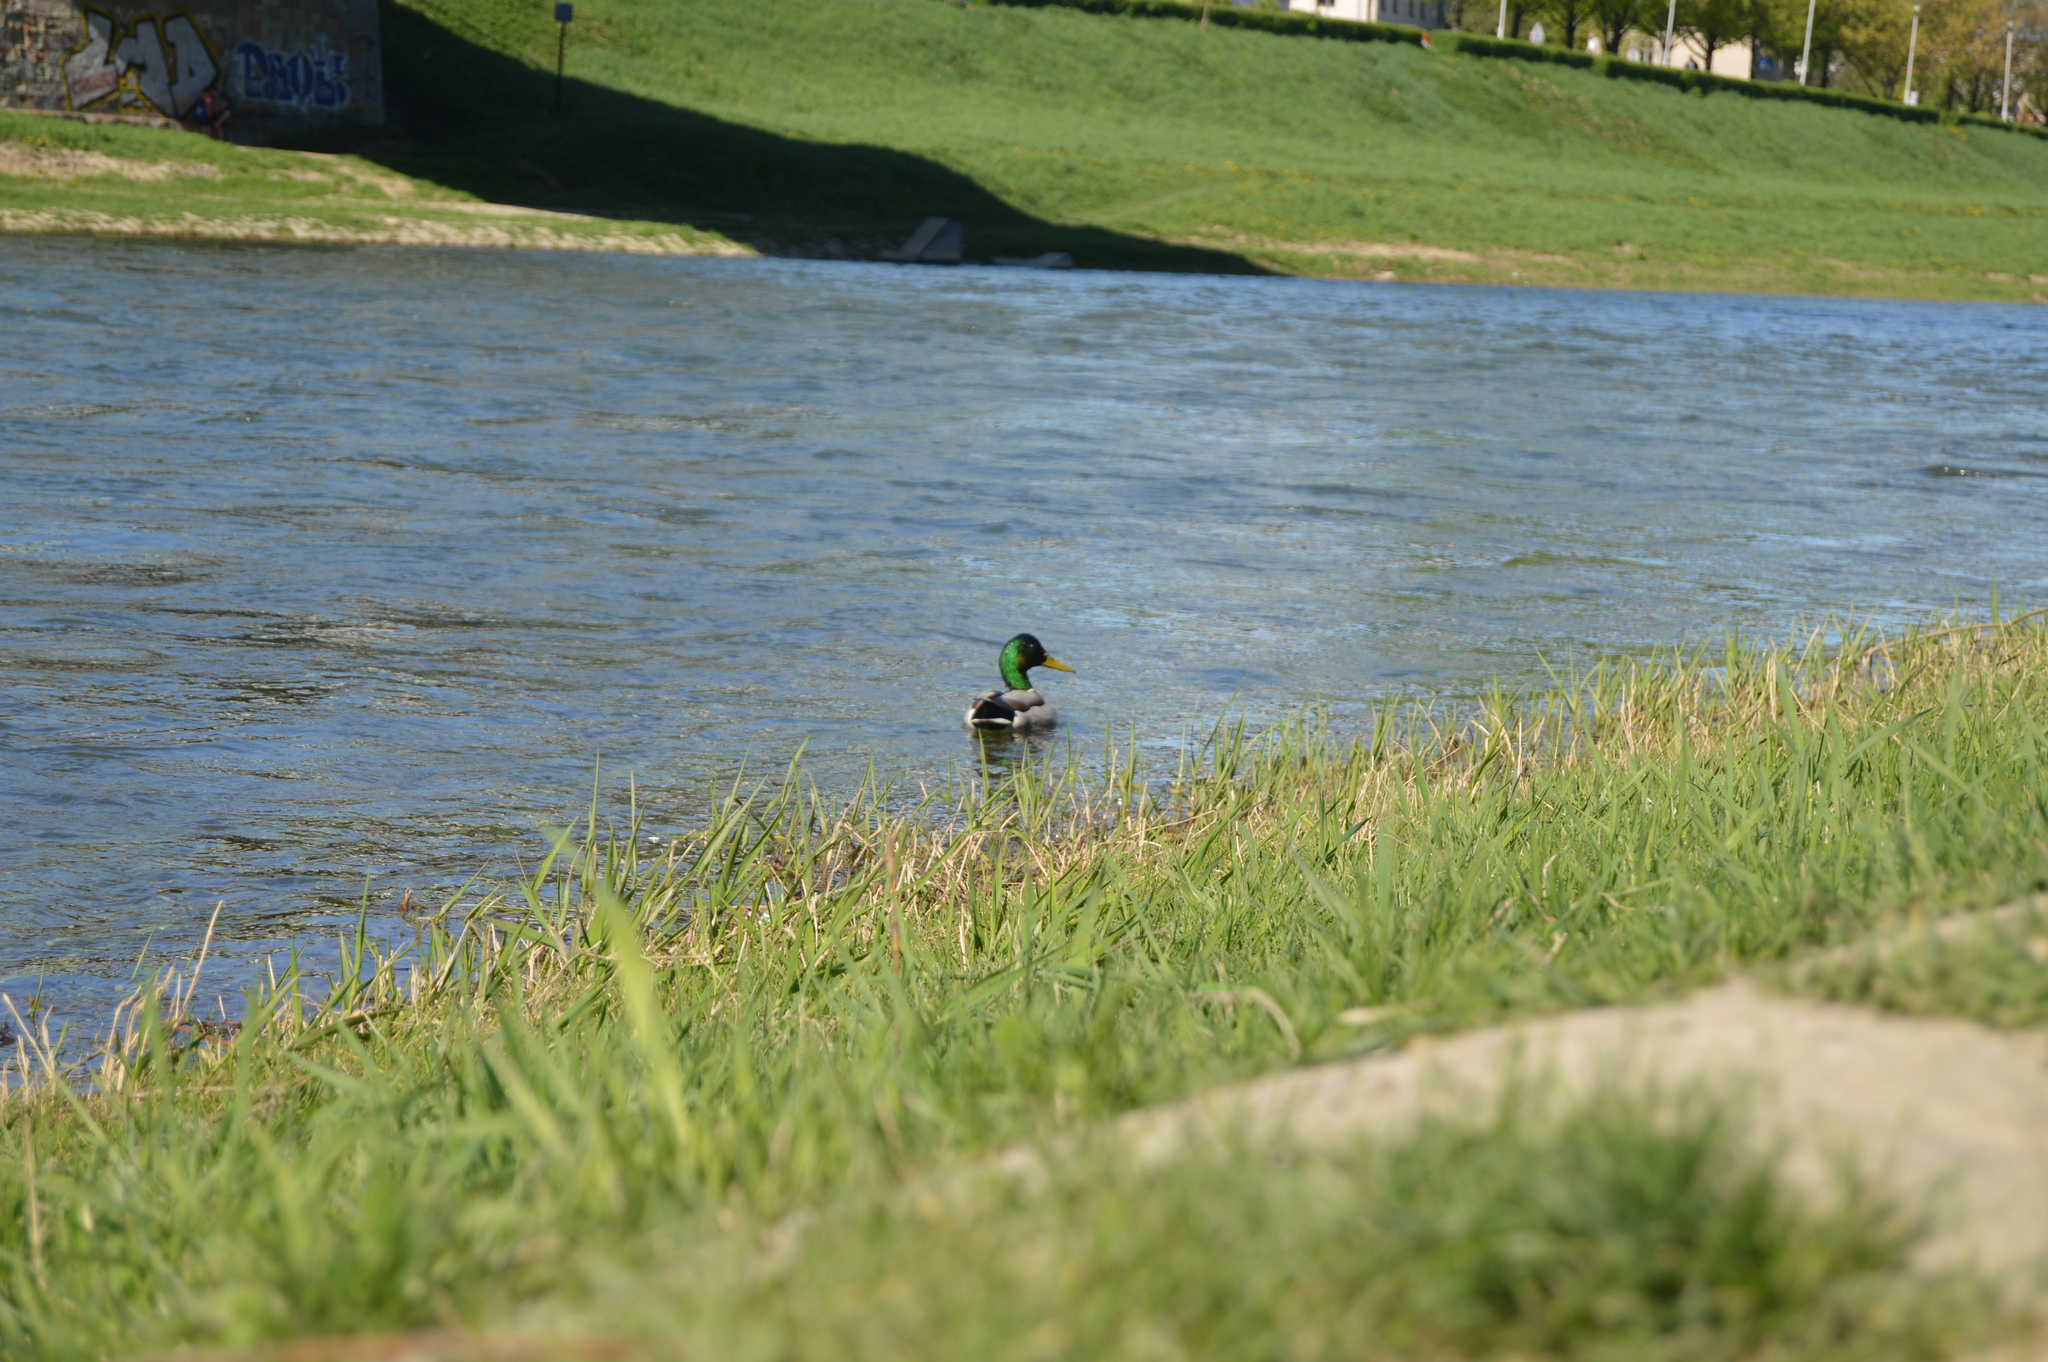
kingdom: Animalia
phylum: Chordata
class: Aves
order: Anseriformes
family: Anatidae
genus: Anas
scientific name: Anas platyrhynchos
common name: Mallard
